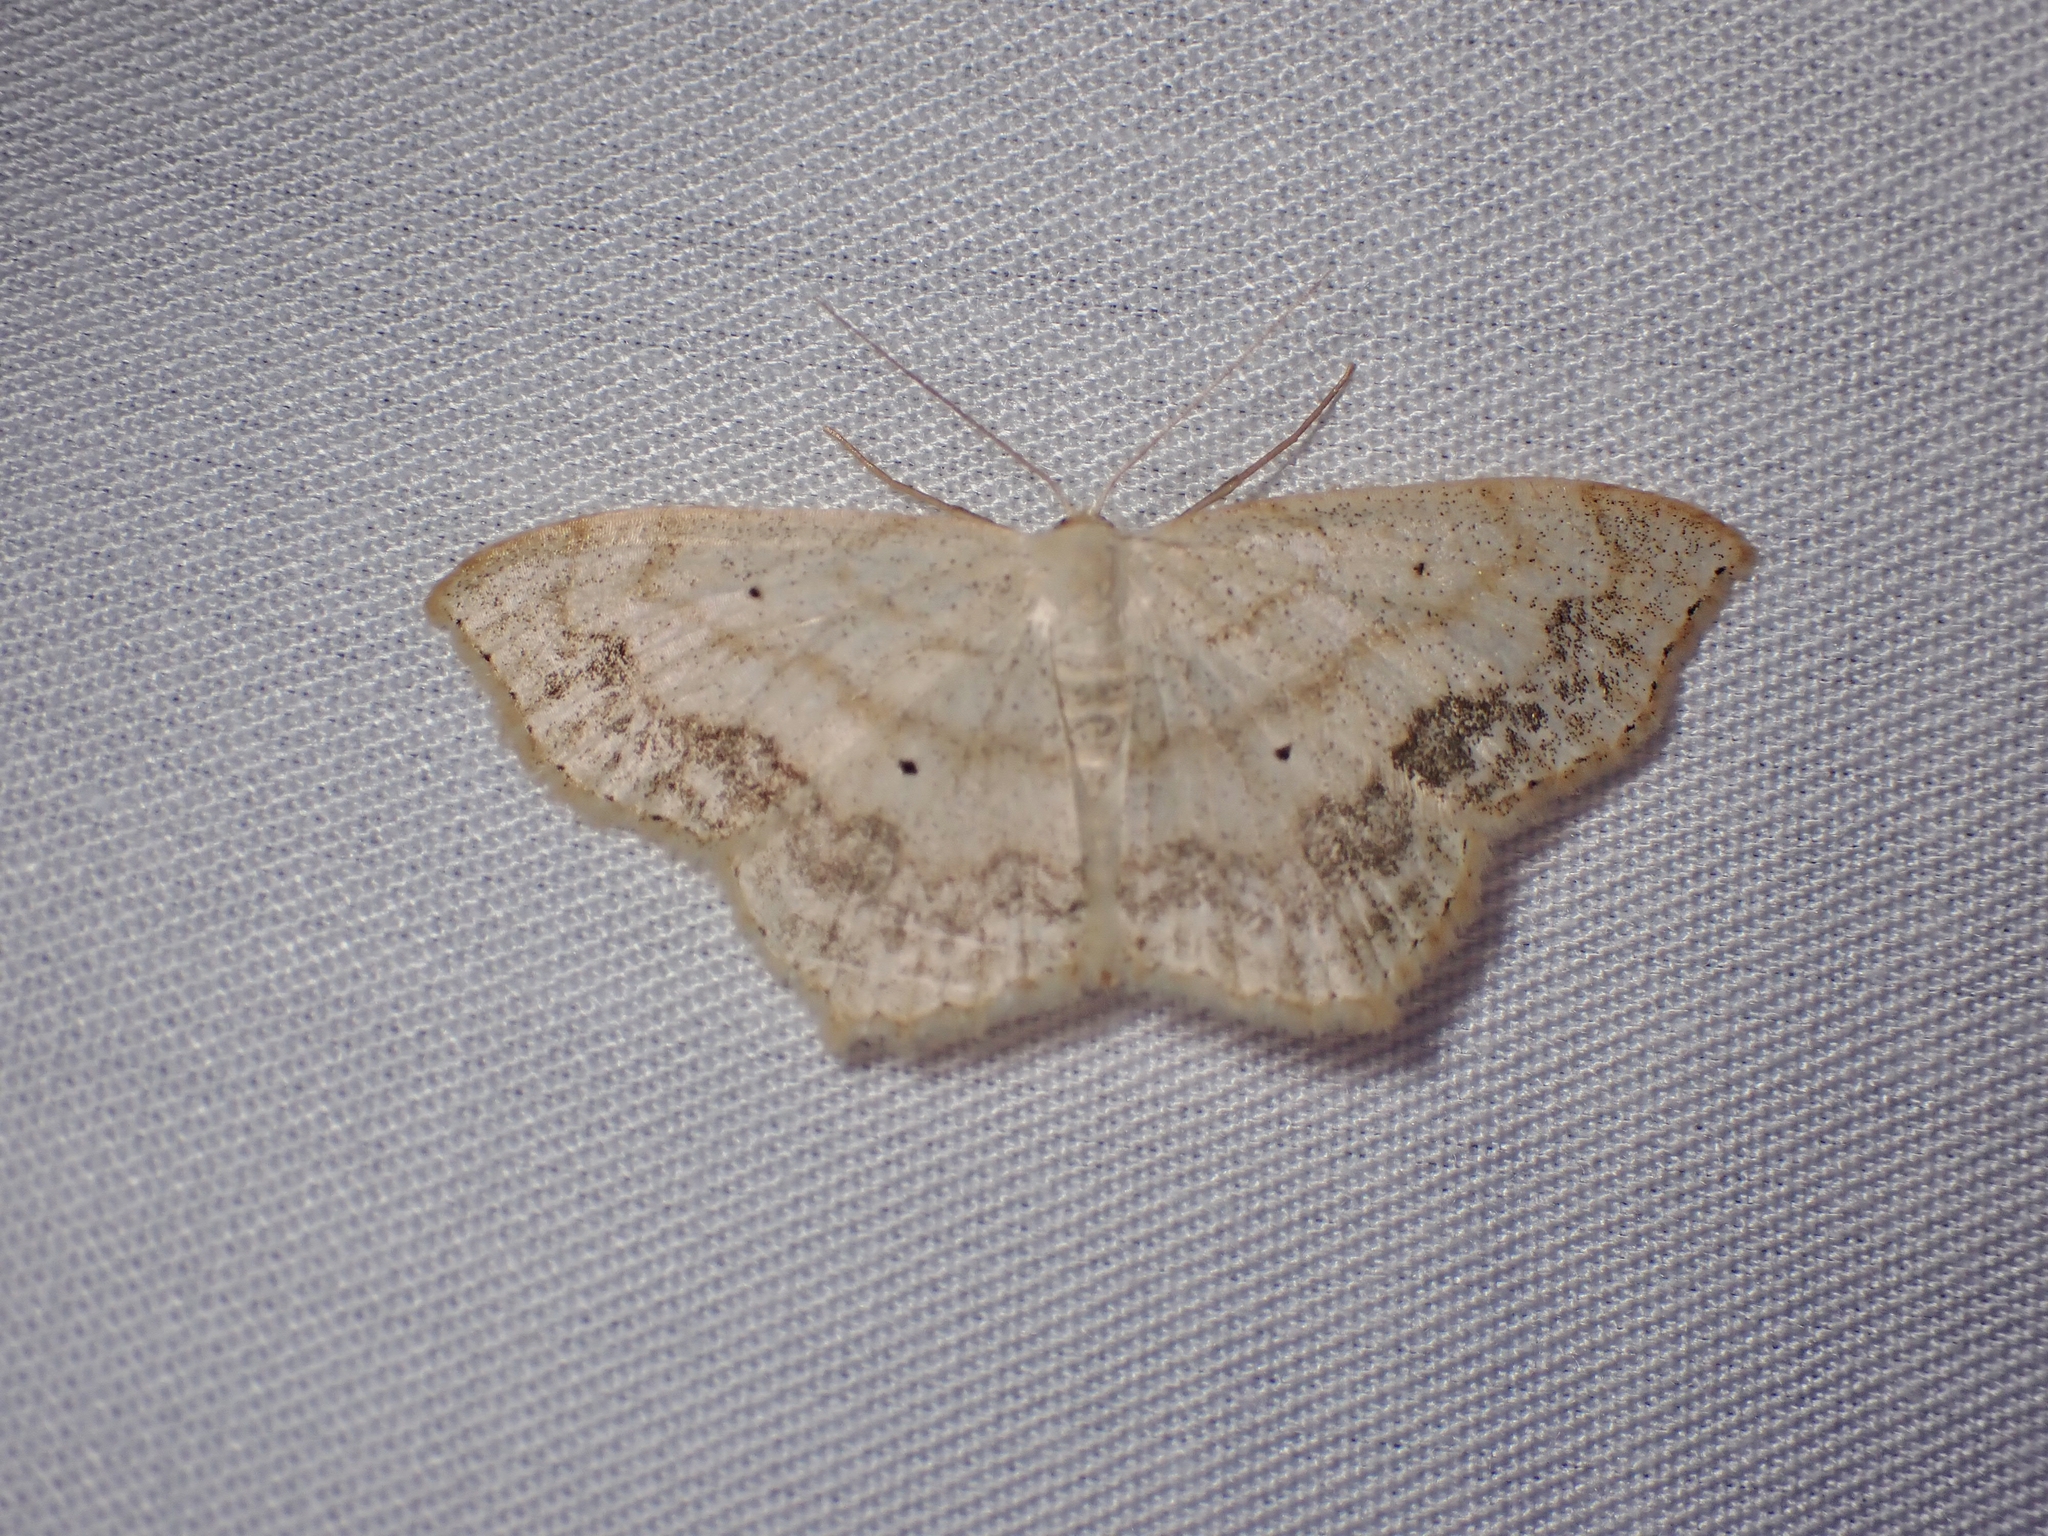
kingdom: Animalia
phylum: Arthropoda
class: Insecta
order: Lepidoptera
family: Geometridae
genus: Scopula
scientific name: Scopula limboundata
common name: Large lace border
